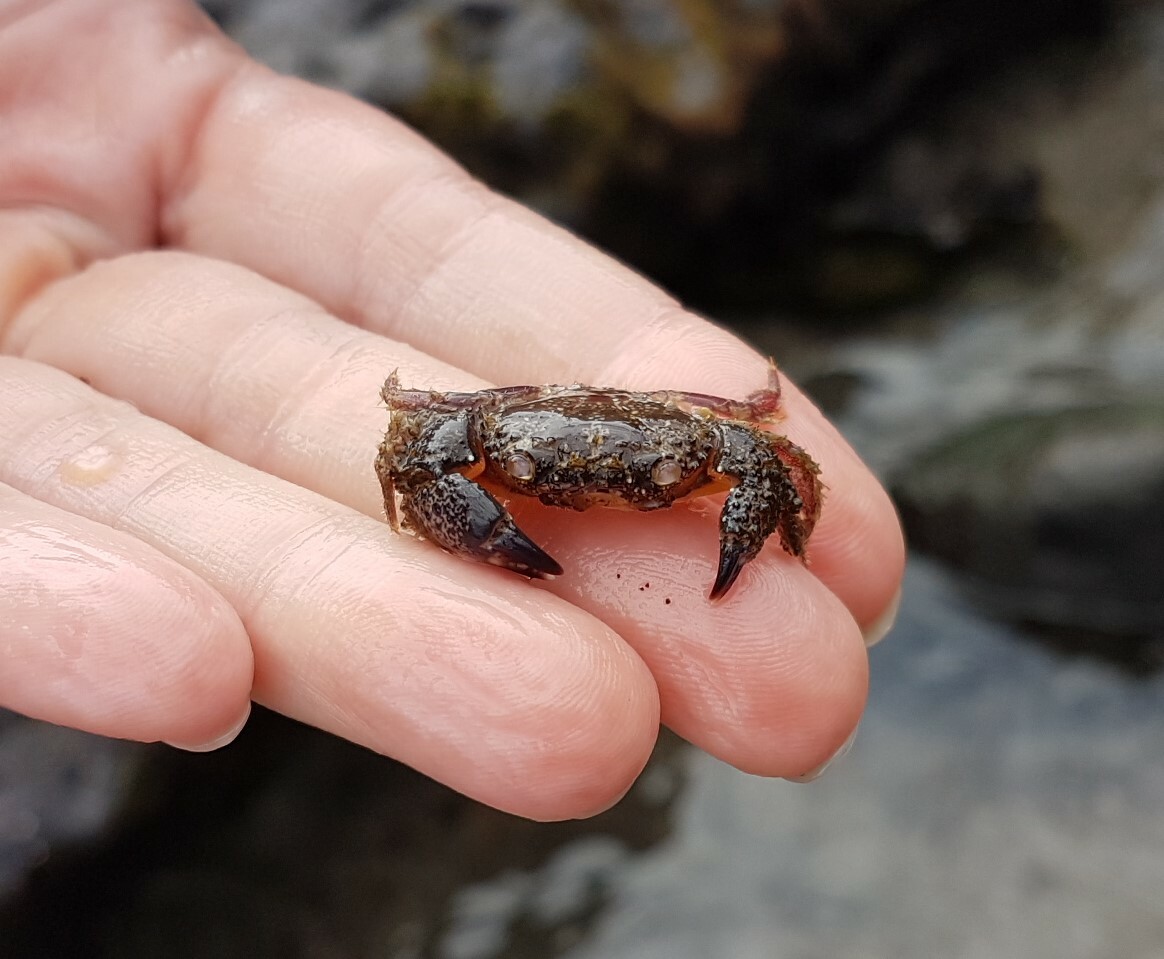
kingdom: Animalia
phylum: Arthropoda
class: Malacostraca
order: Decapoda
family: Eriphiidae
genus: Eriphia
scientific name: Eriphia verrucosa
